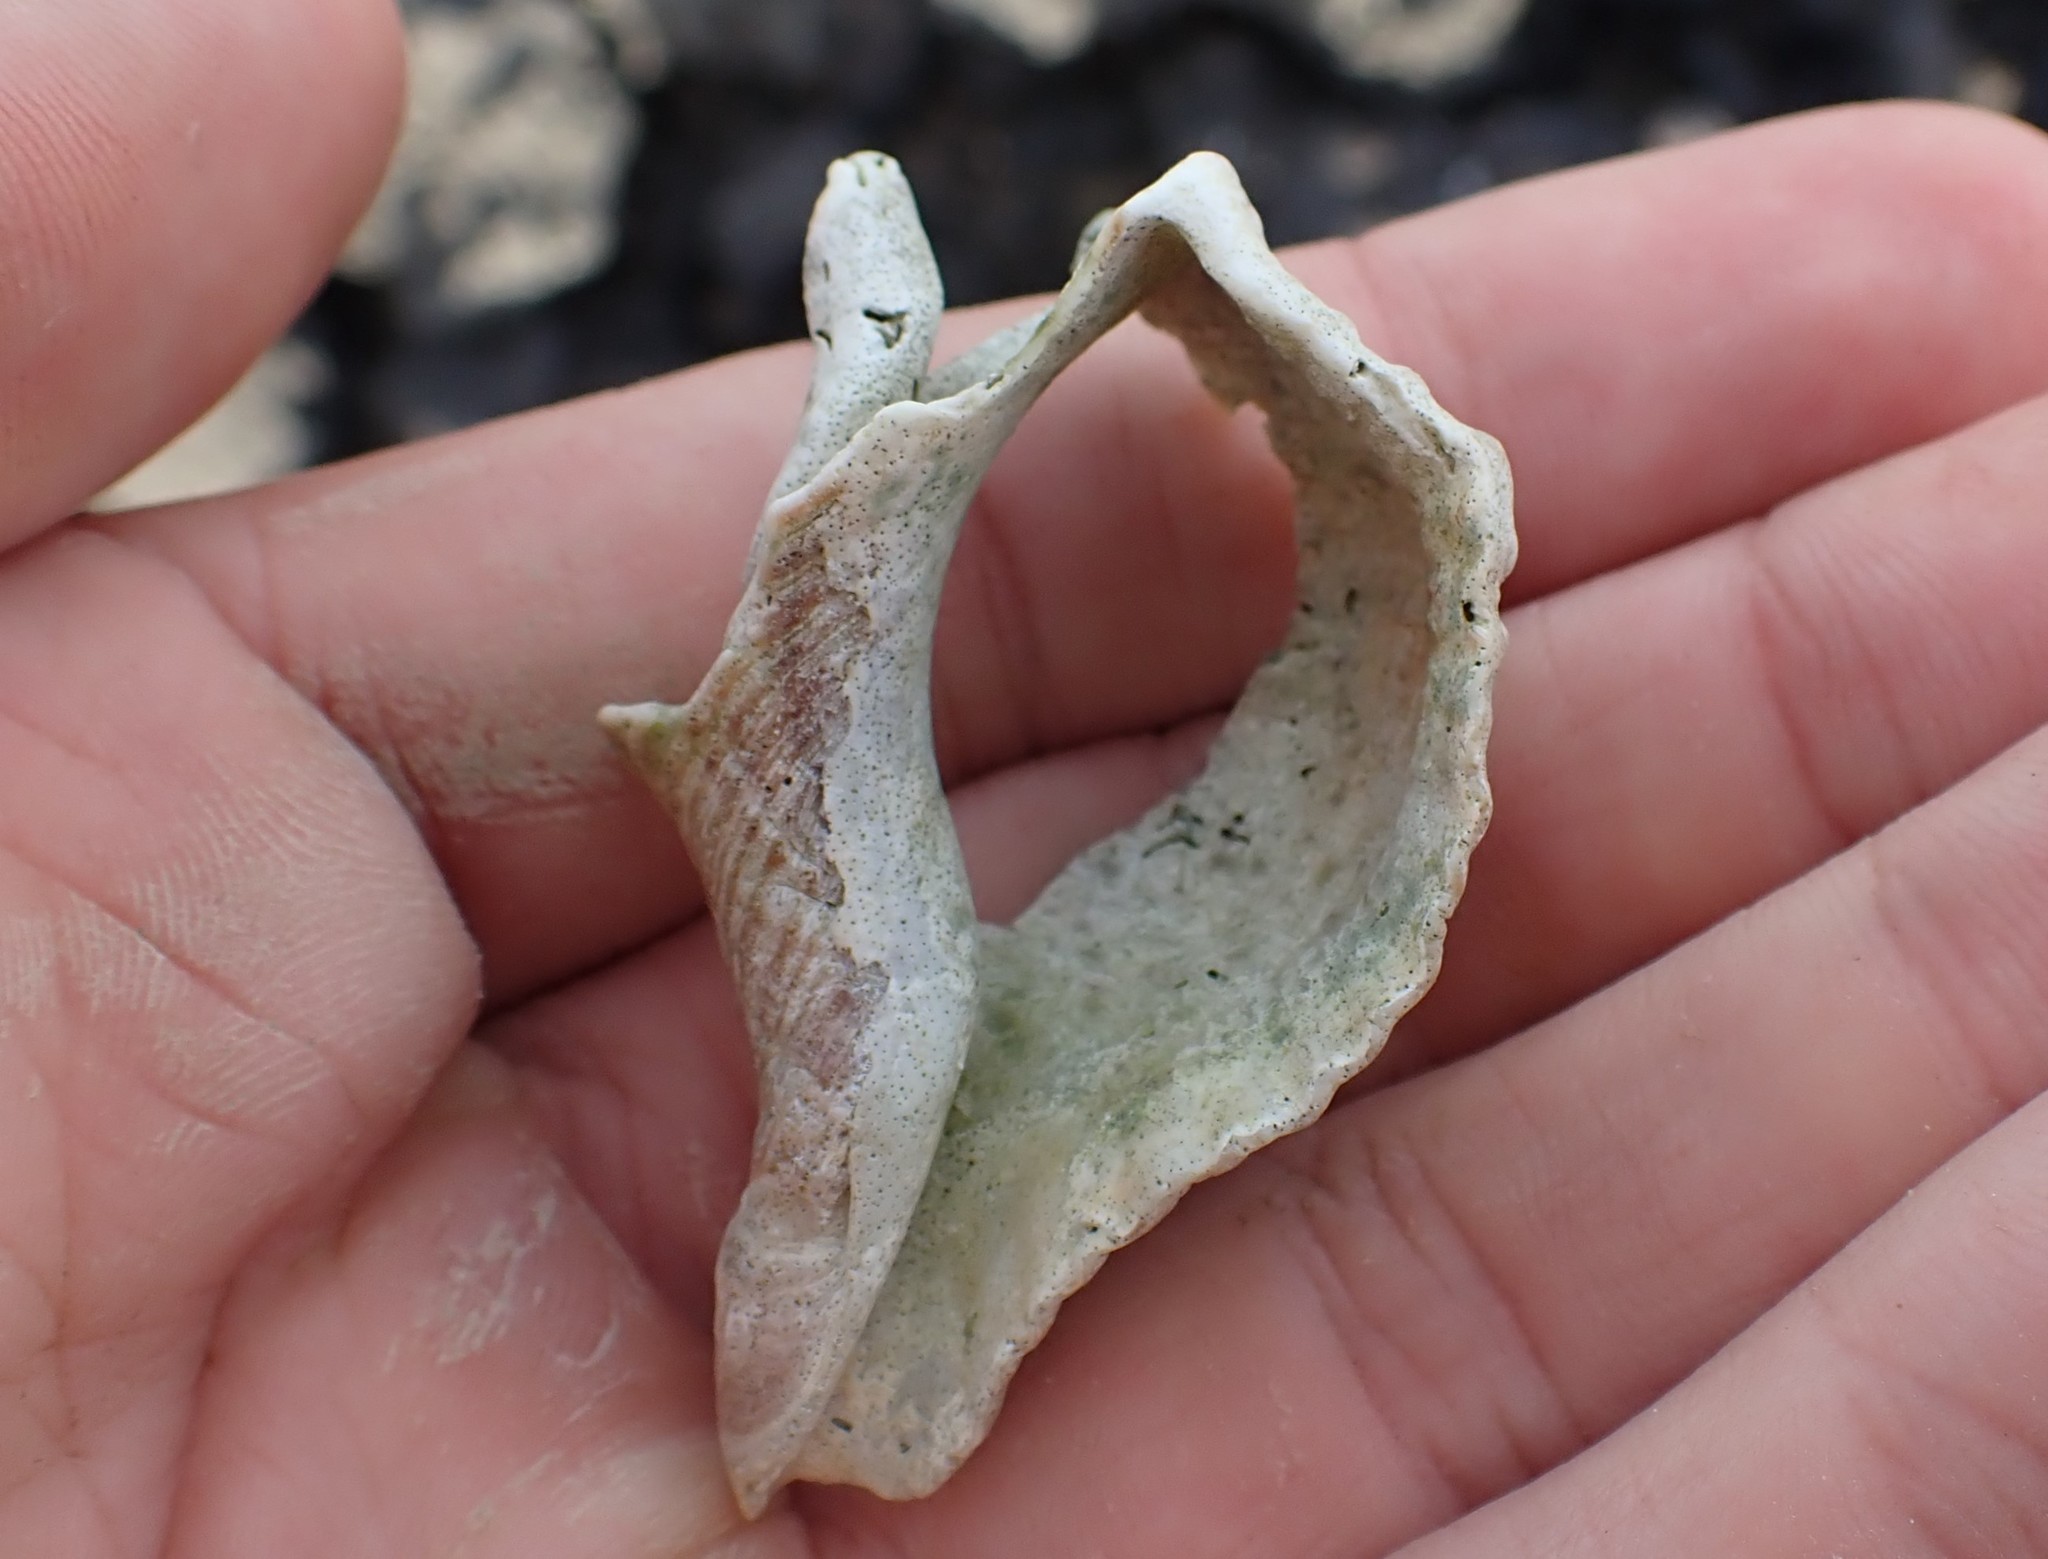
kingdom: Animalia
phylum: Mollusca
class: Gastropoda
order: Neogastropoda
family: Austrosiphonidae
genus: Penion
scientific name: Penion sulcatus
